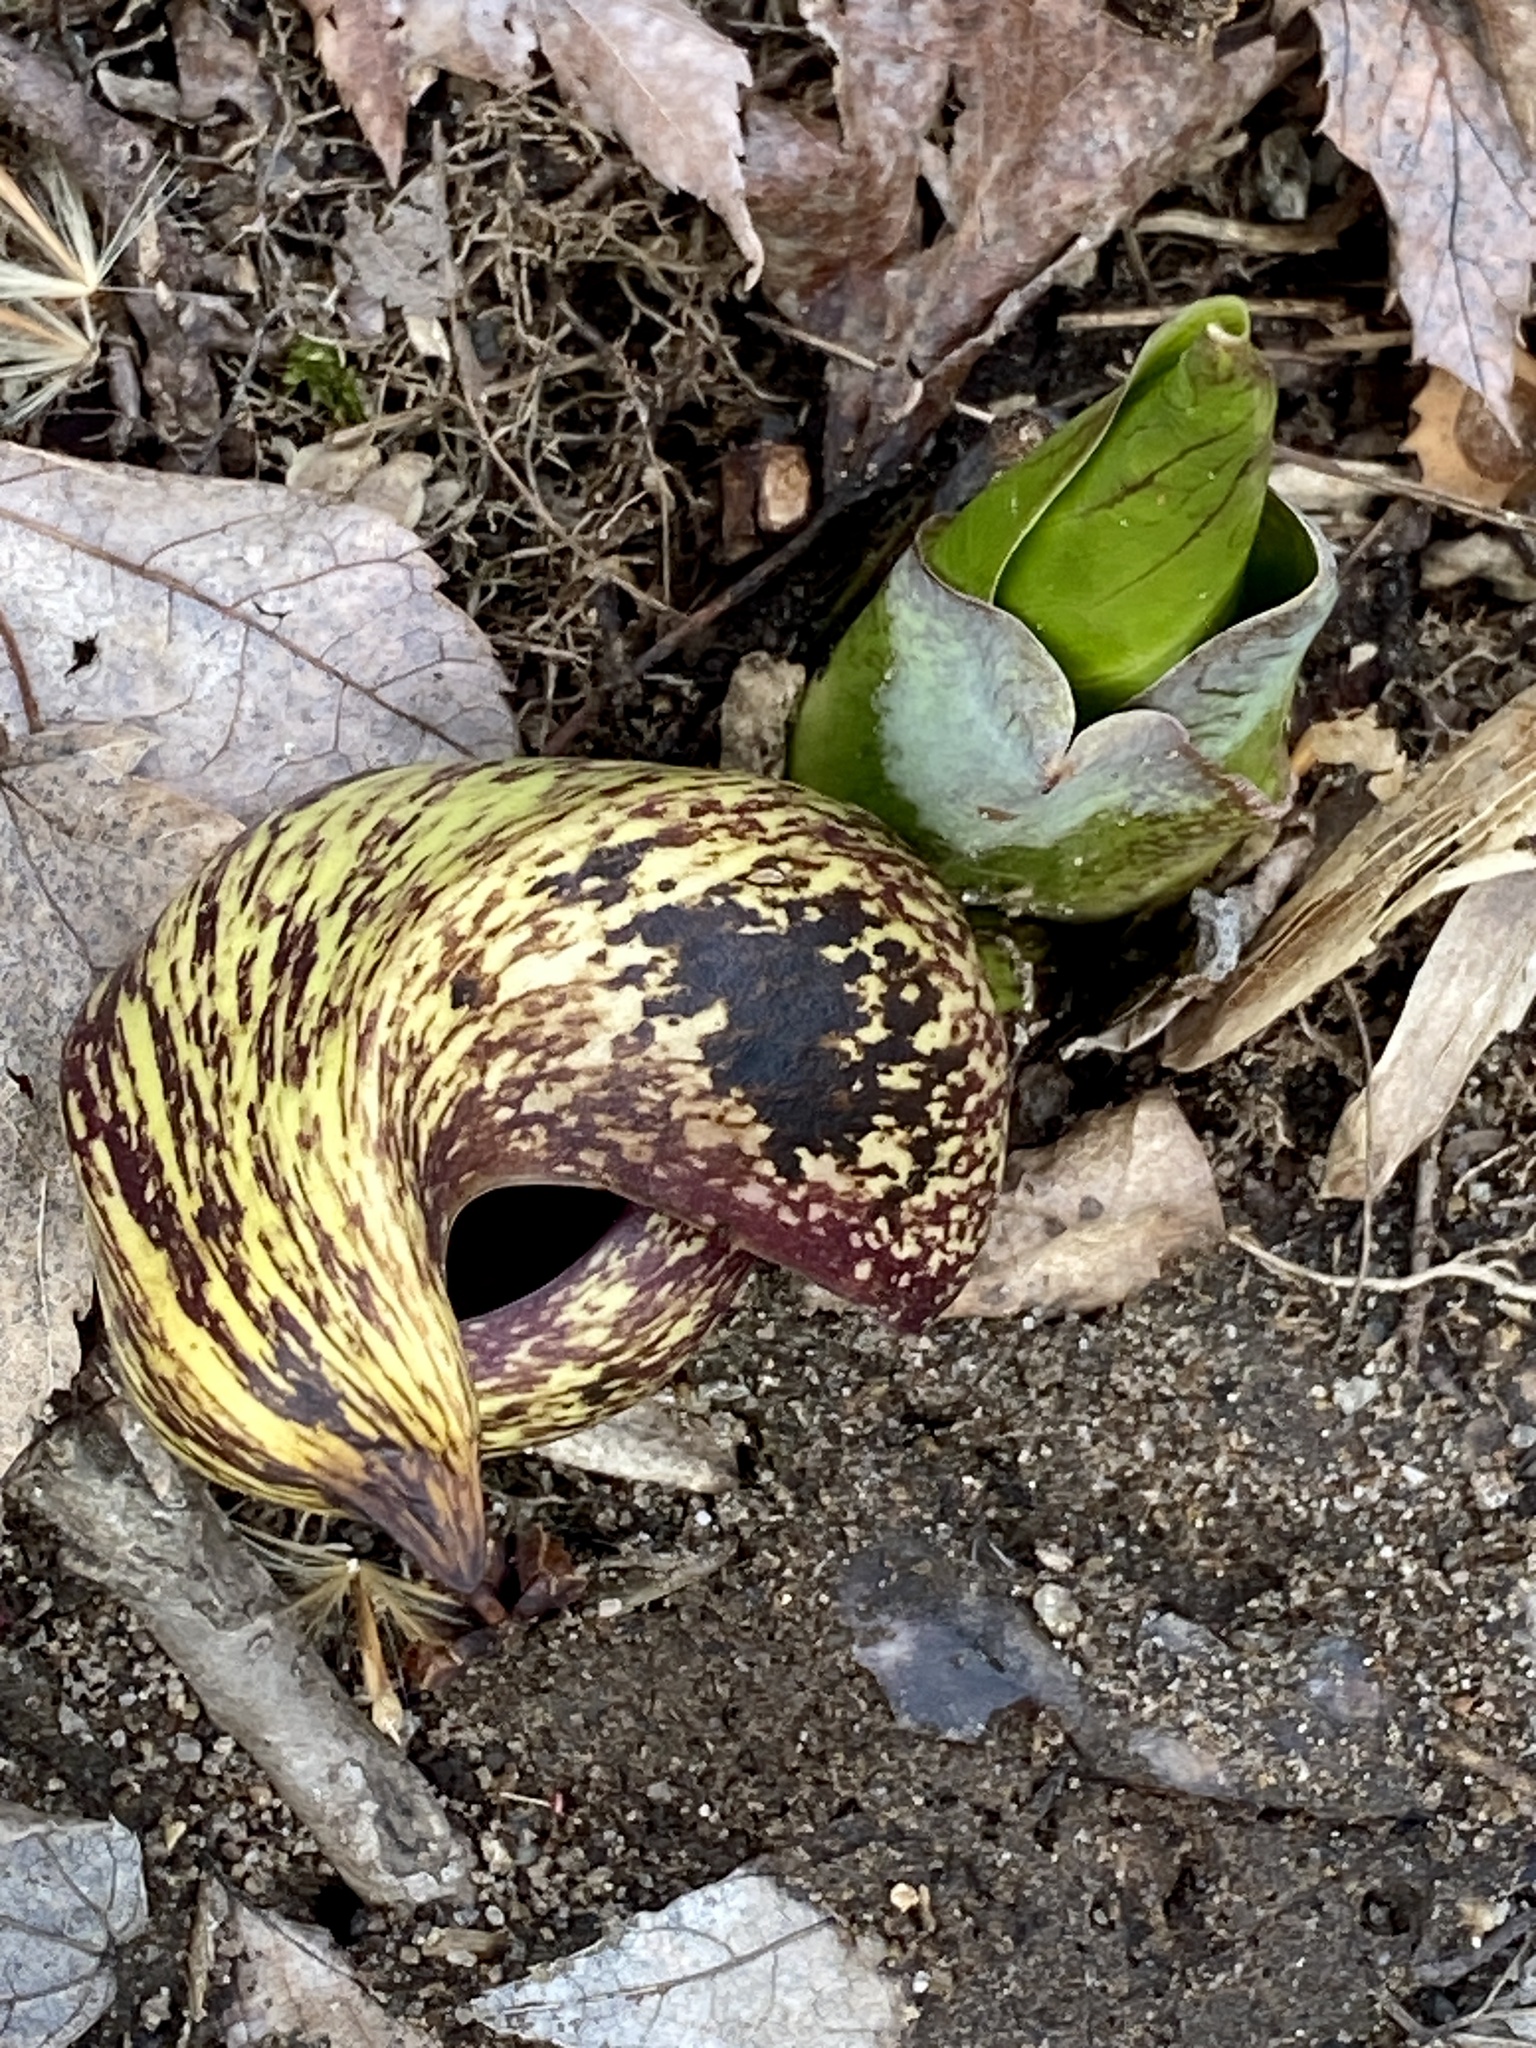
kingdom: Plantae
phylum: Tracheophyta
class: Liliopsida
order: Alismatales
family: Araceae
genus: Symplocarpus
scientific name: Symplocarpus foetidus
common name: Eastern skunk cabbage
